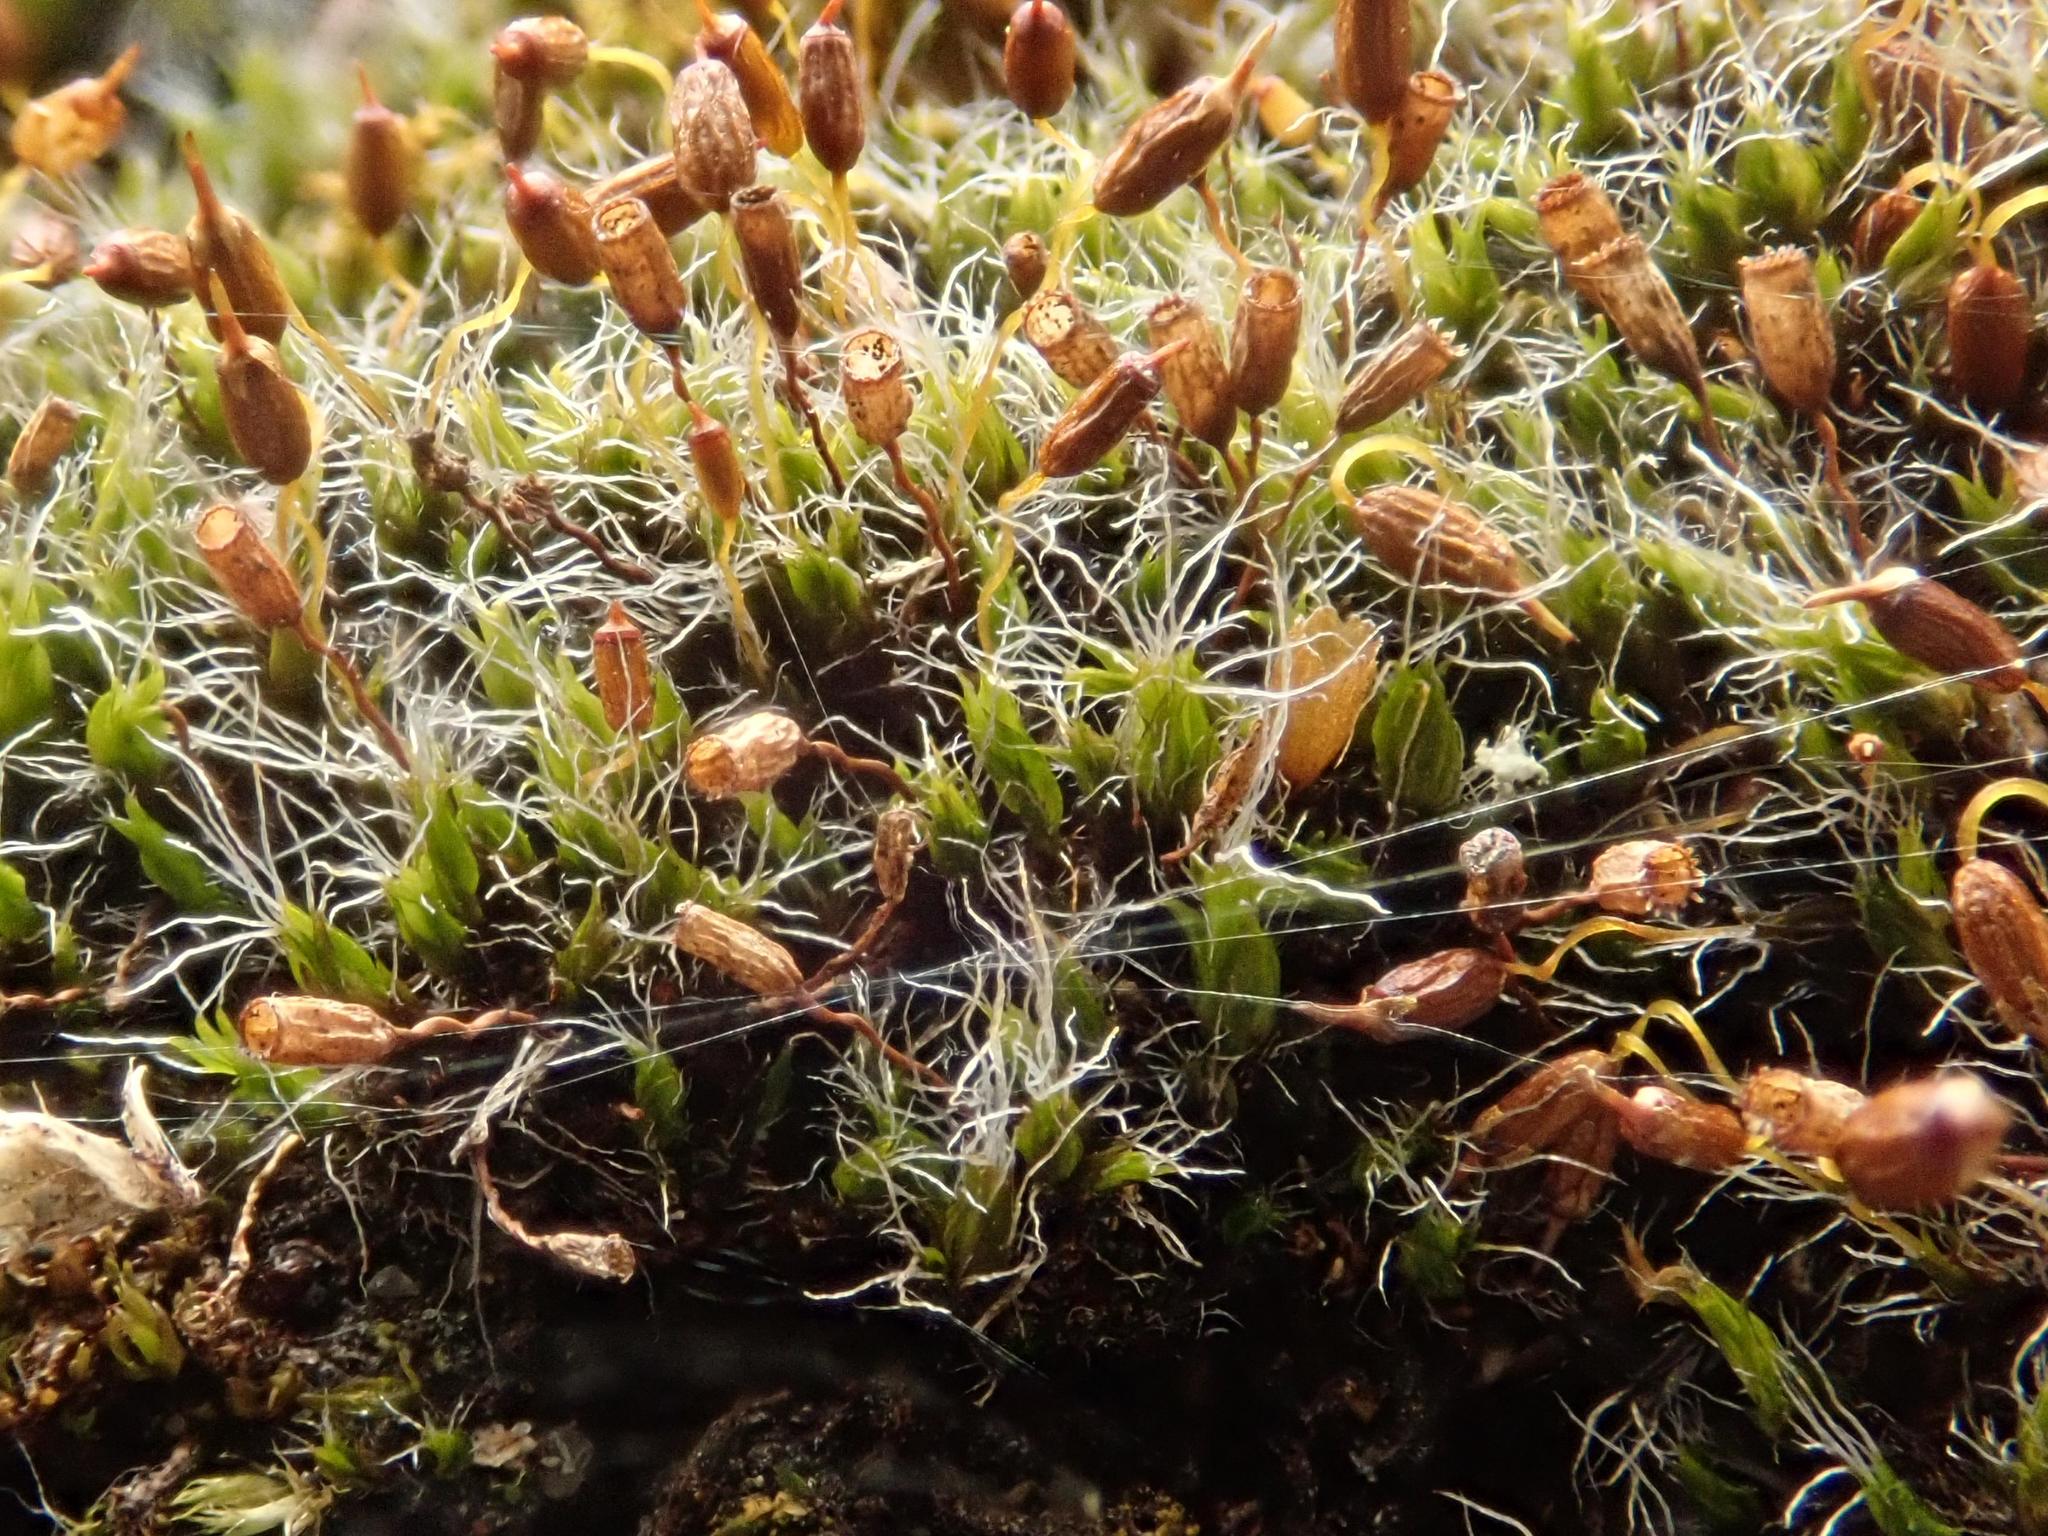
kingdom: Plantae
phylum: Bryophyta
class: Bryopsida
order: Grimmiales
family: Grimmiaceae
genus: Grimmia
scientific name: Grimmia pulvinata
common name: Grey-cushioned grimmia
